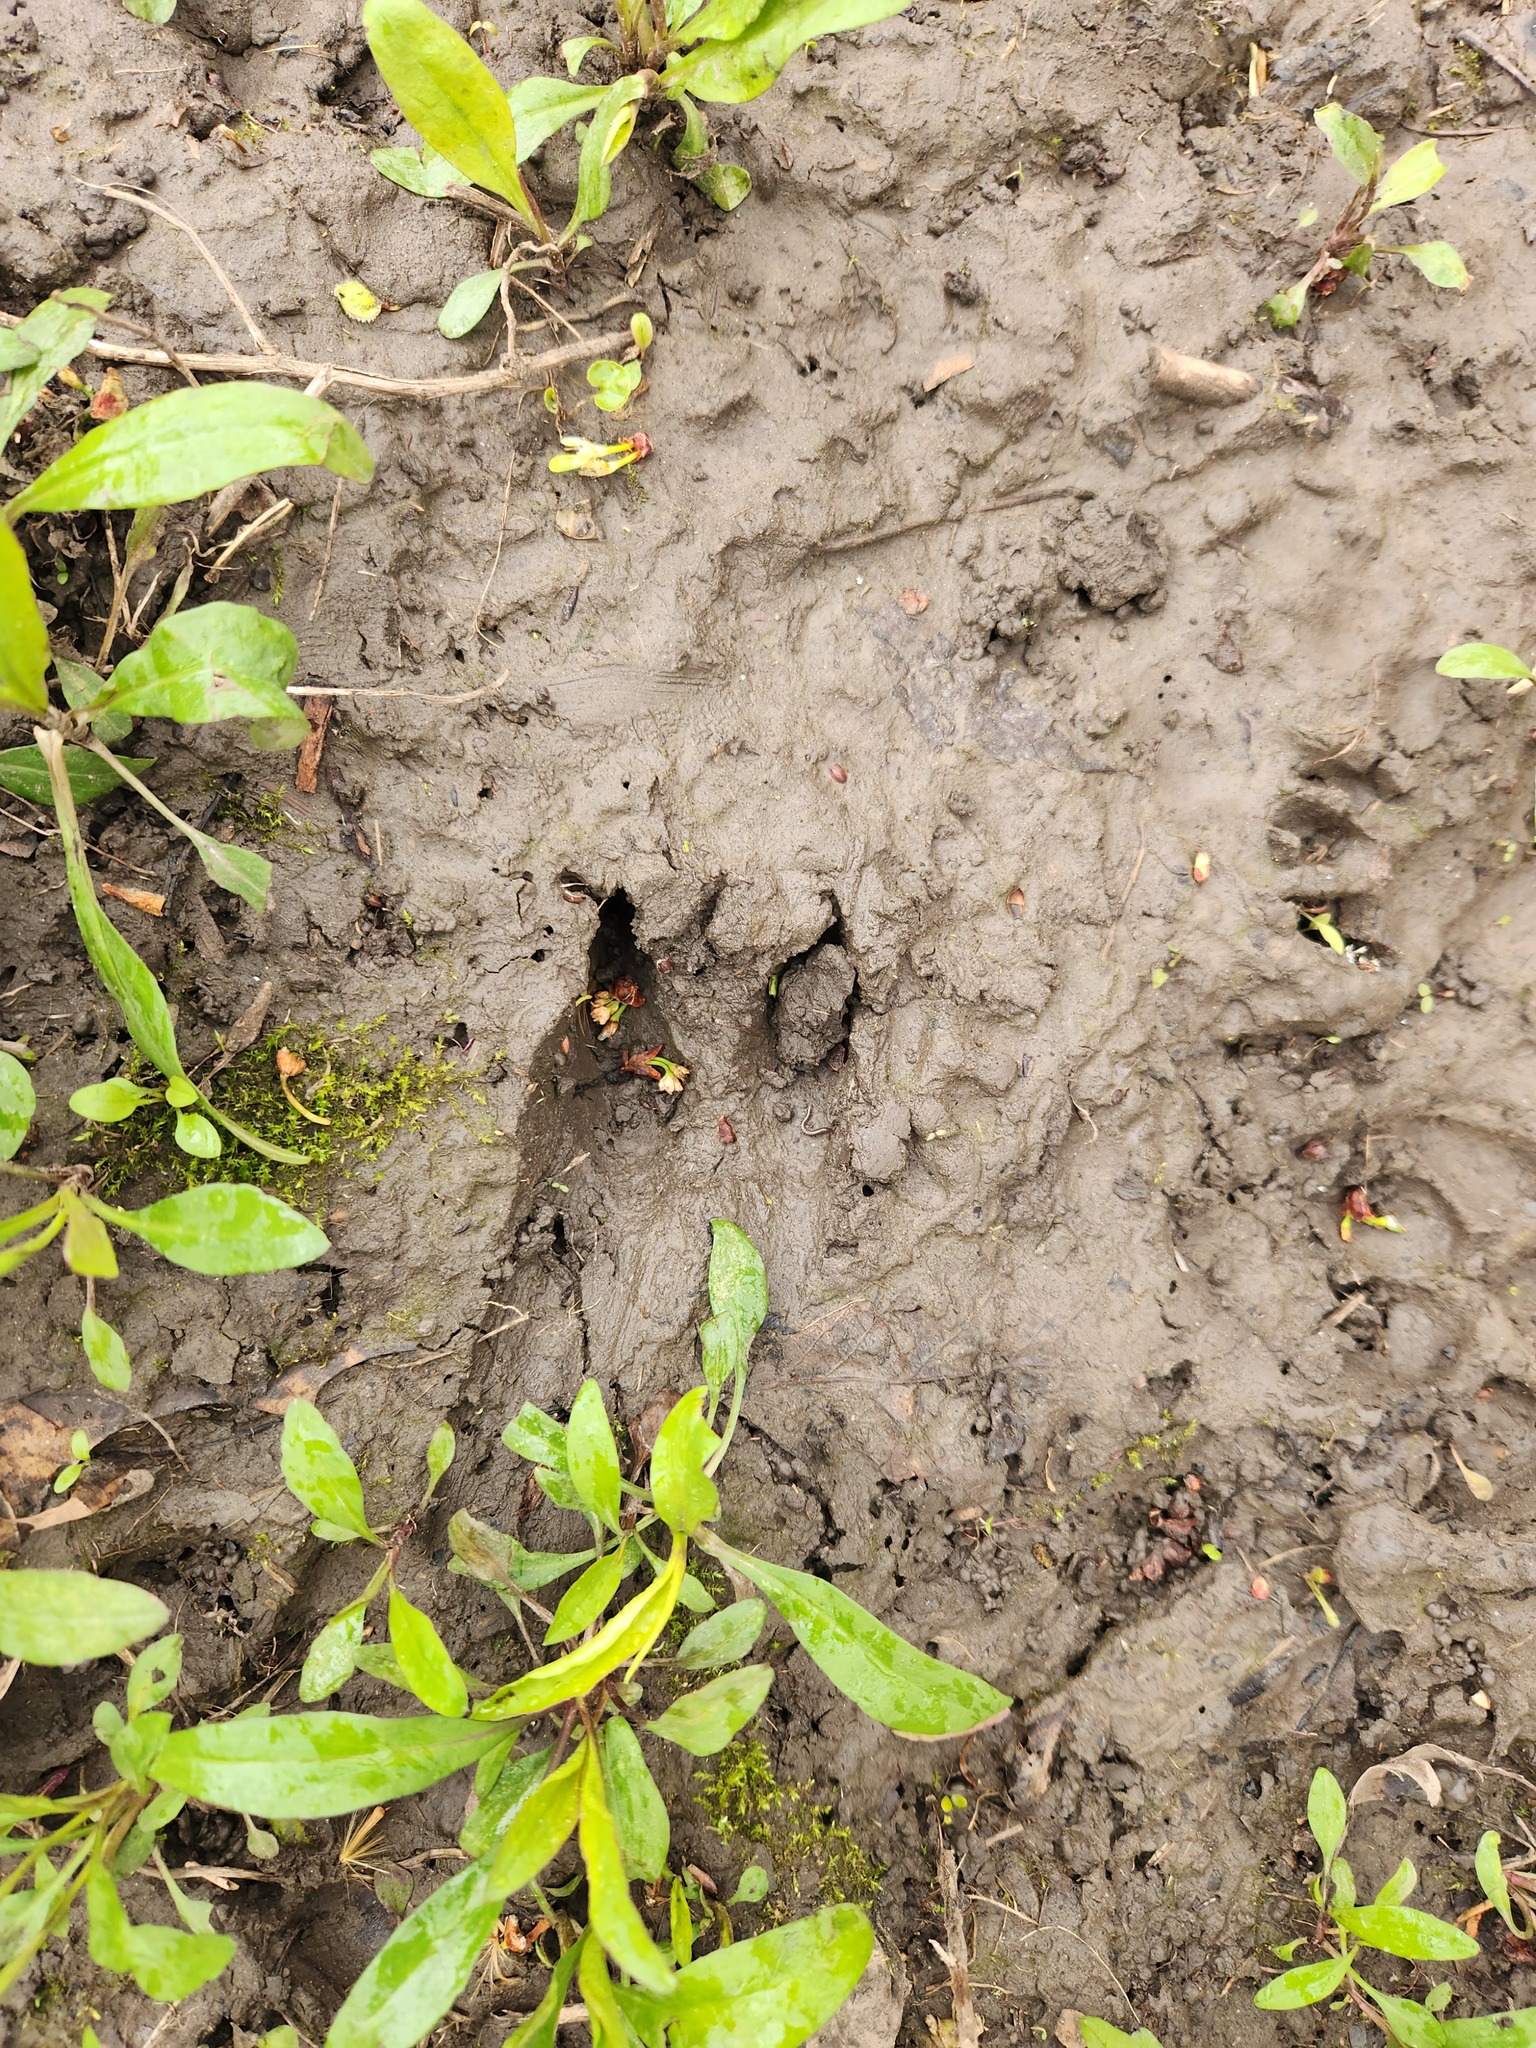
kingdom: Animalia
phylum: Chordata
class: Mammalia
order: Artiodactyla
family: Cervidae
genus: Odocoileus
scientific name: Odocoileus virginianus
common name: White-tailed deer
